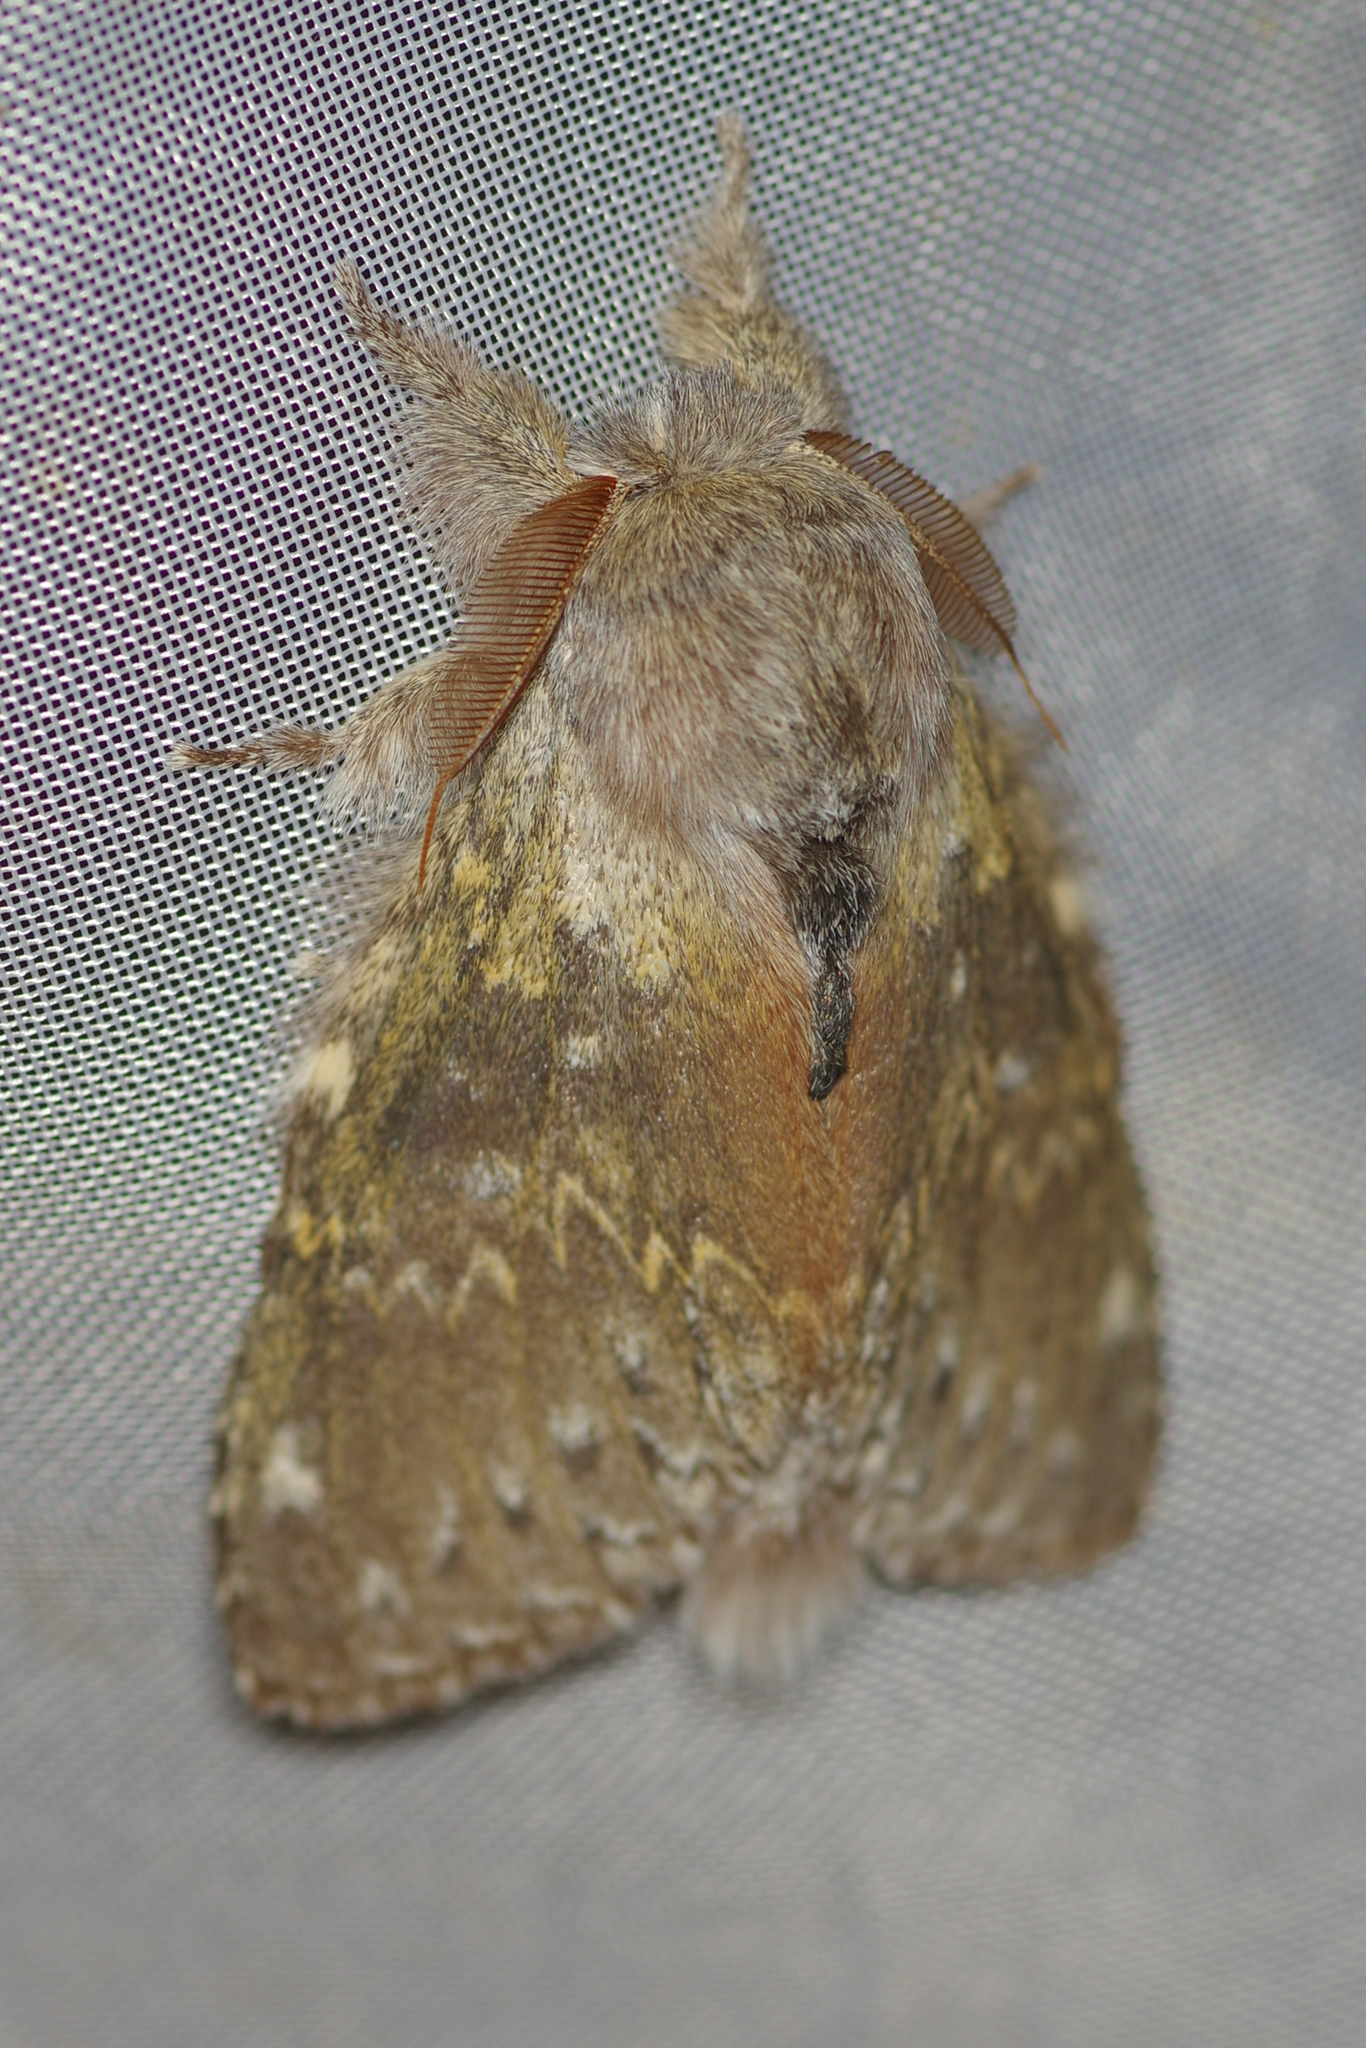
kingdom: Animalia
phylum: Arthropoda
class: Insecta
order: Lepidoptera
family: Notodontidae
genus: Stauropus
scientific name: Stauropus fagi
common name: Lobster moth
